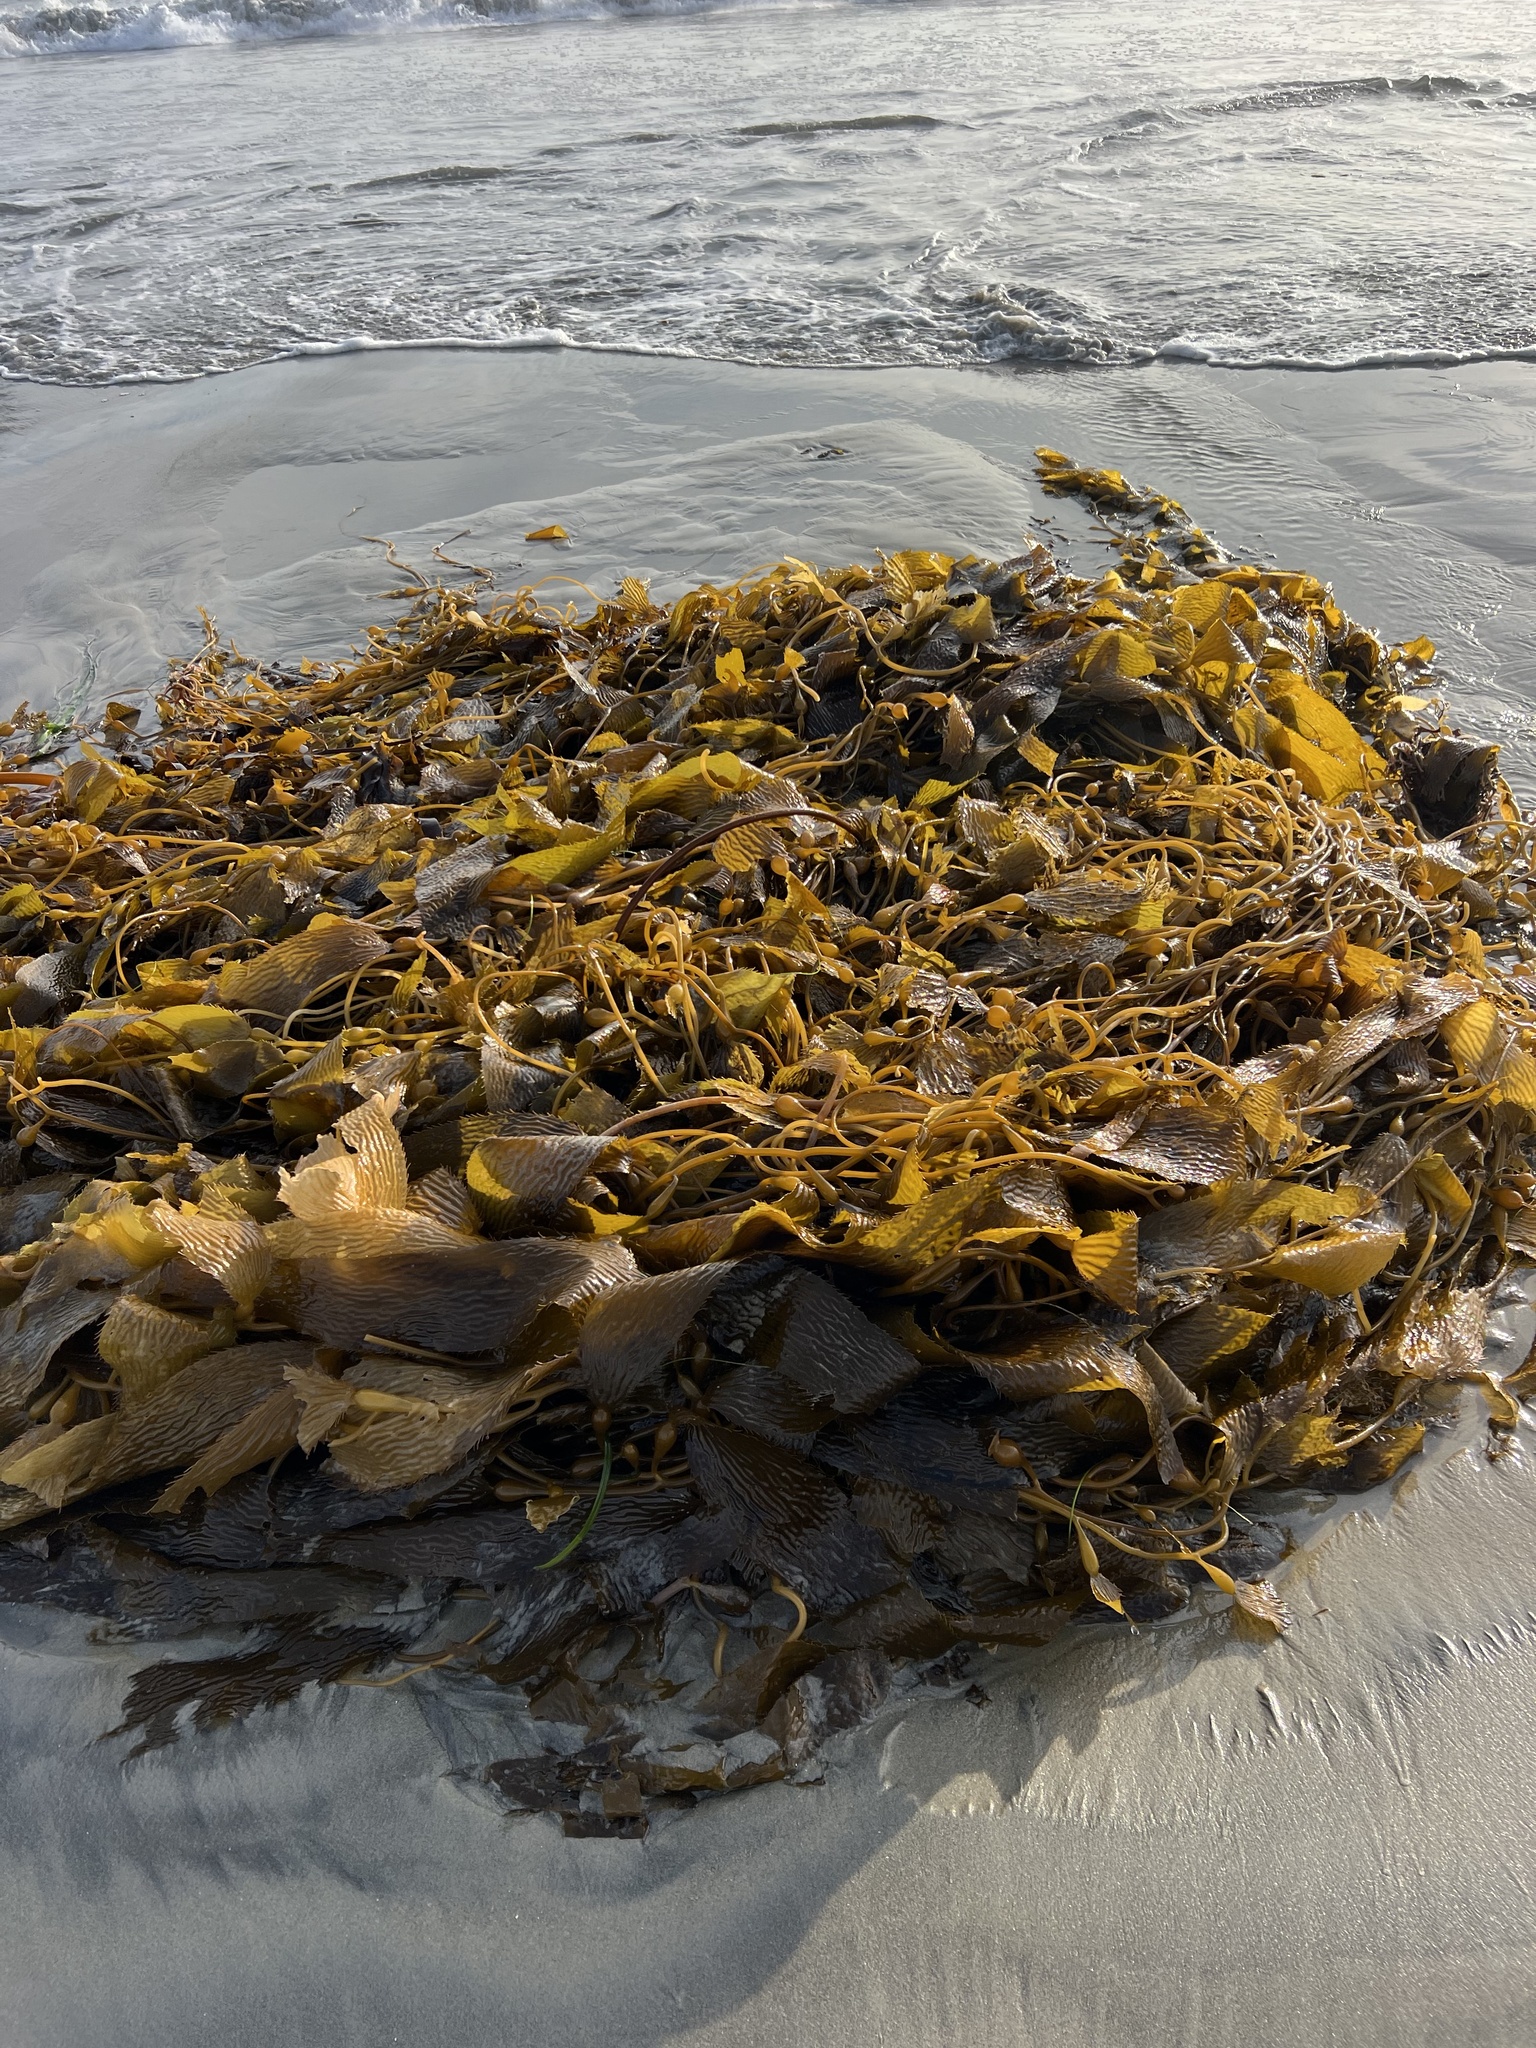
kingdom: Chromista
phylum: Ochrophyta
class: Phaeophyceae
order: Laminariales
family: Laminariaceae
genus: Macrocystis
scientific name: Macrocystis pyrifera
